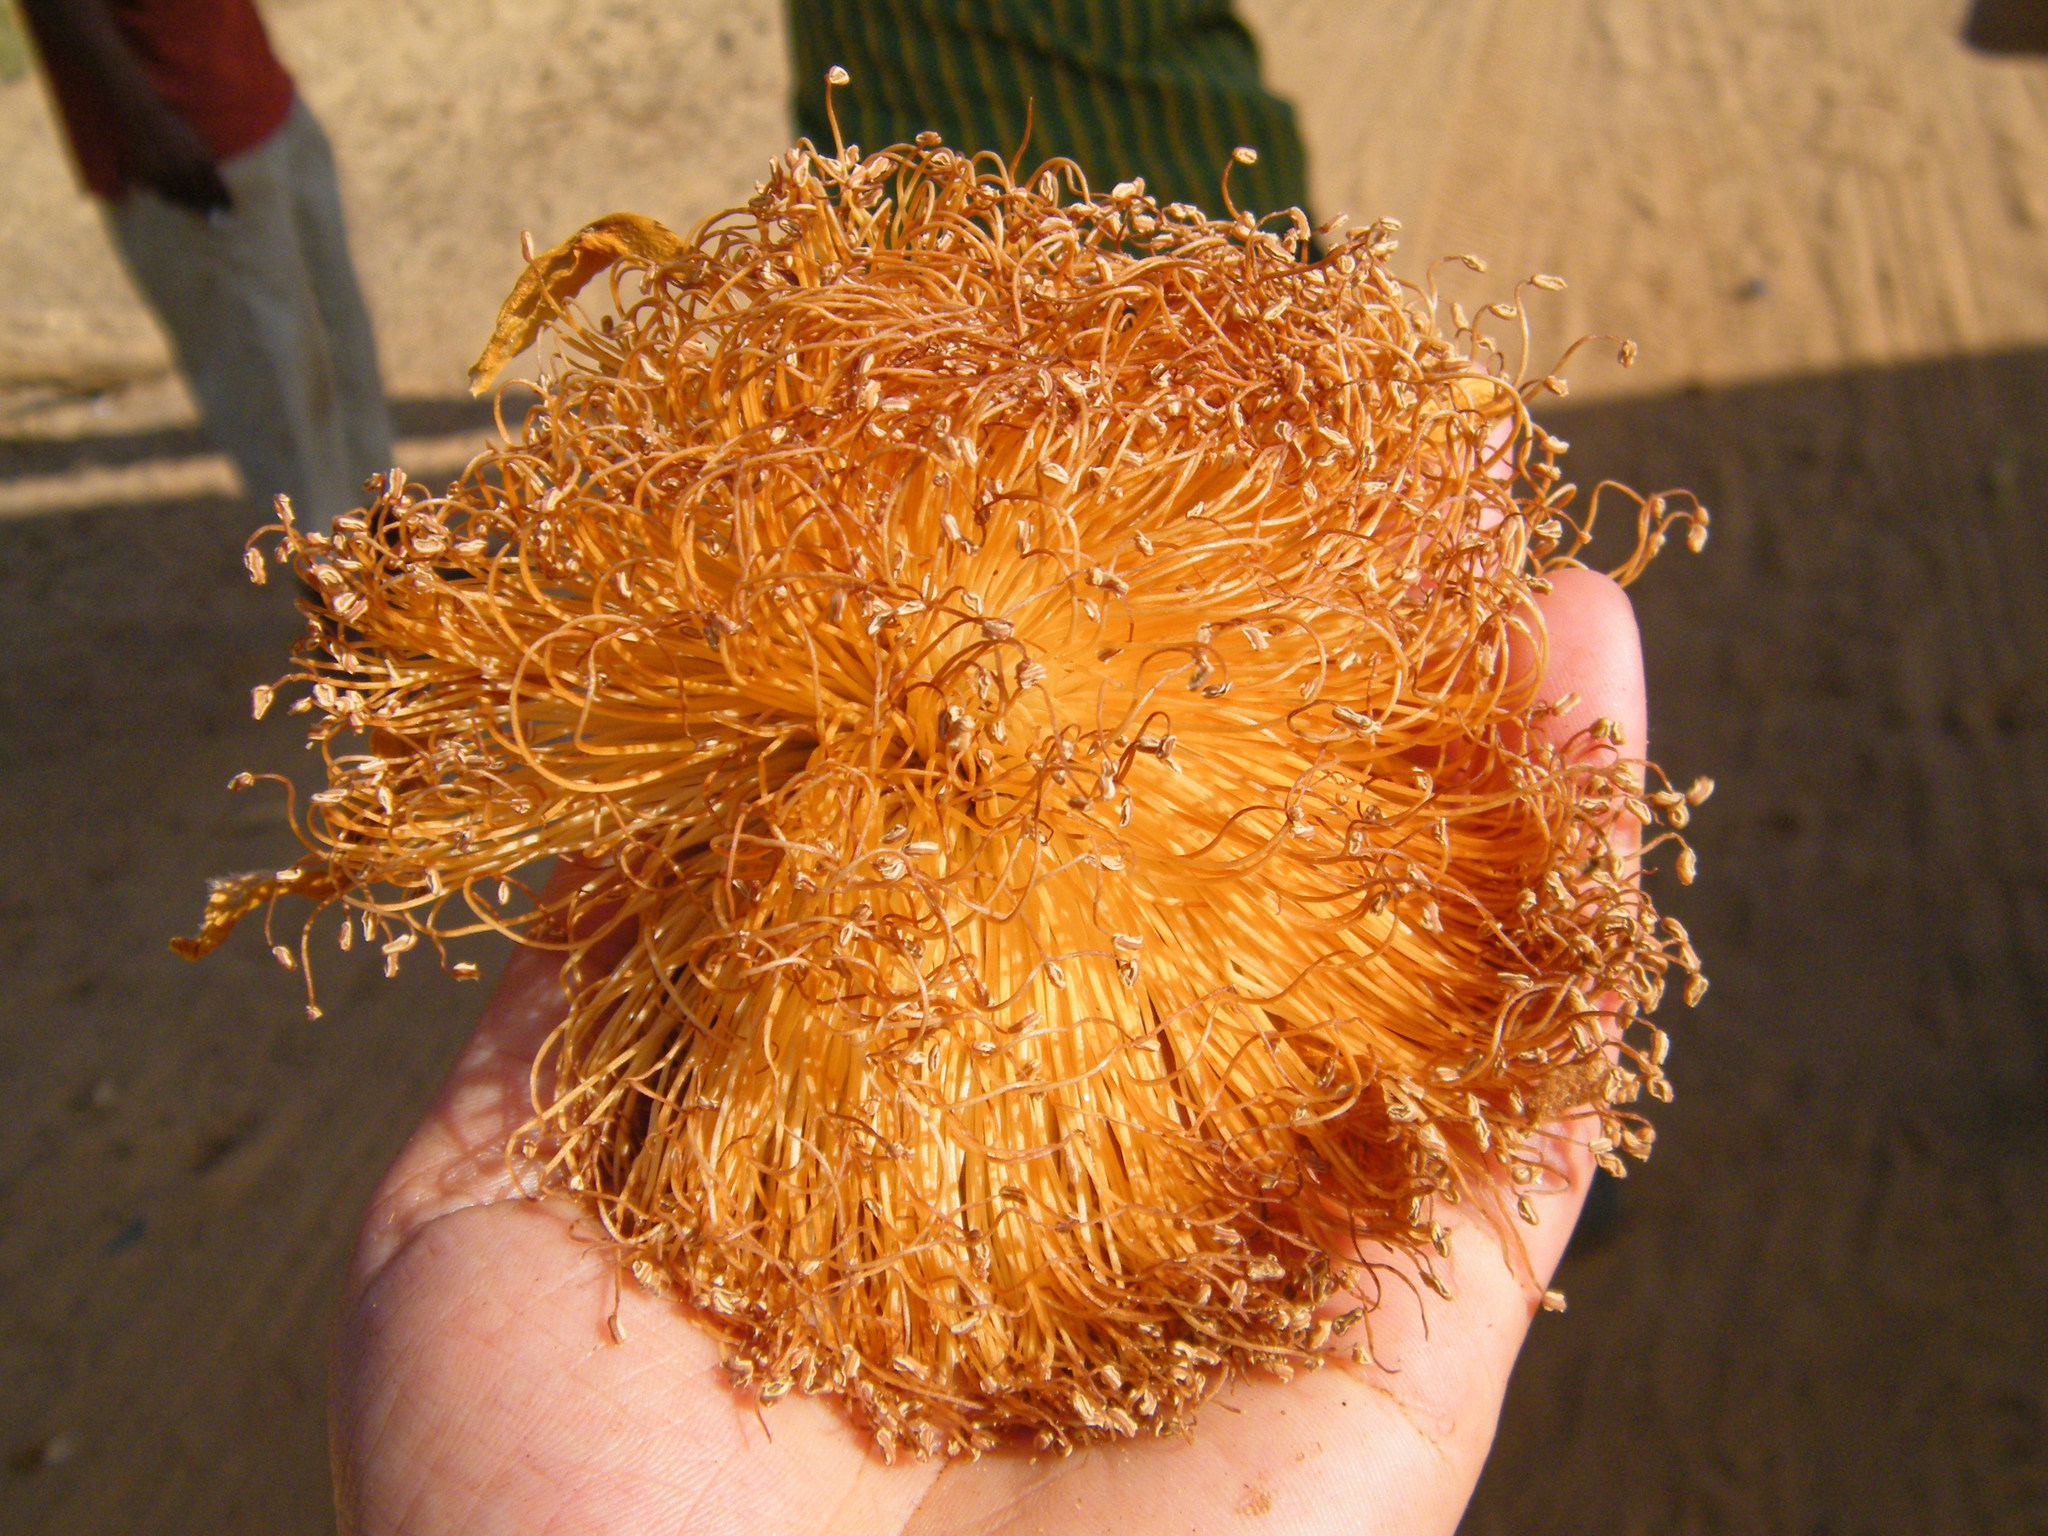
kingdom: Plantae
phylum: Tracheophyta
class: Magnoliopsida
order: Malvales
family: Malvaceae
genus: Adansonia
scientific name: Adansonia grandidieri
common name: Grandidier's baobab
